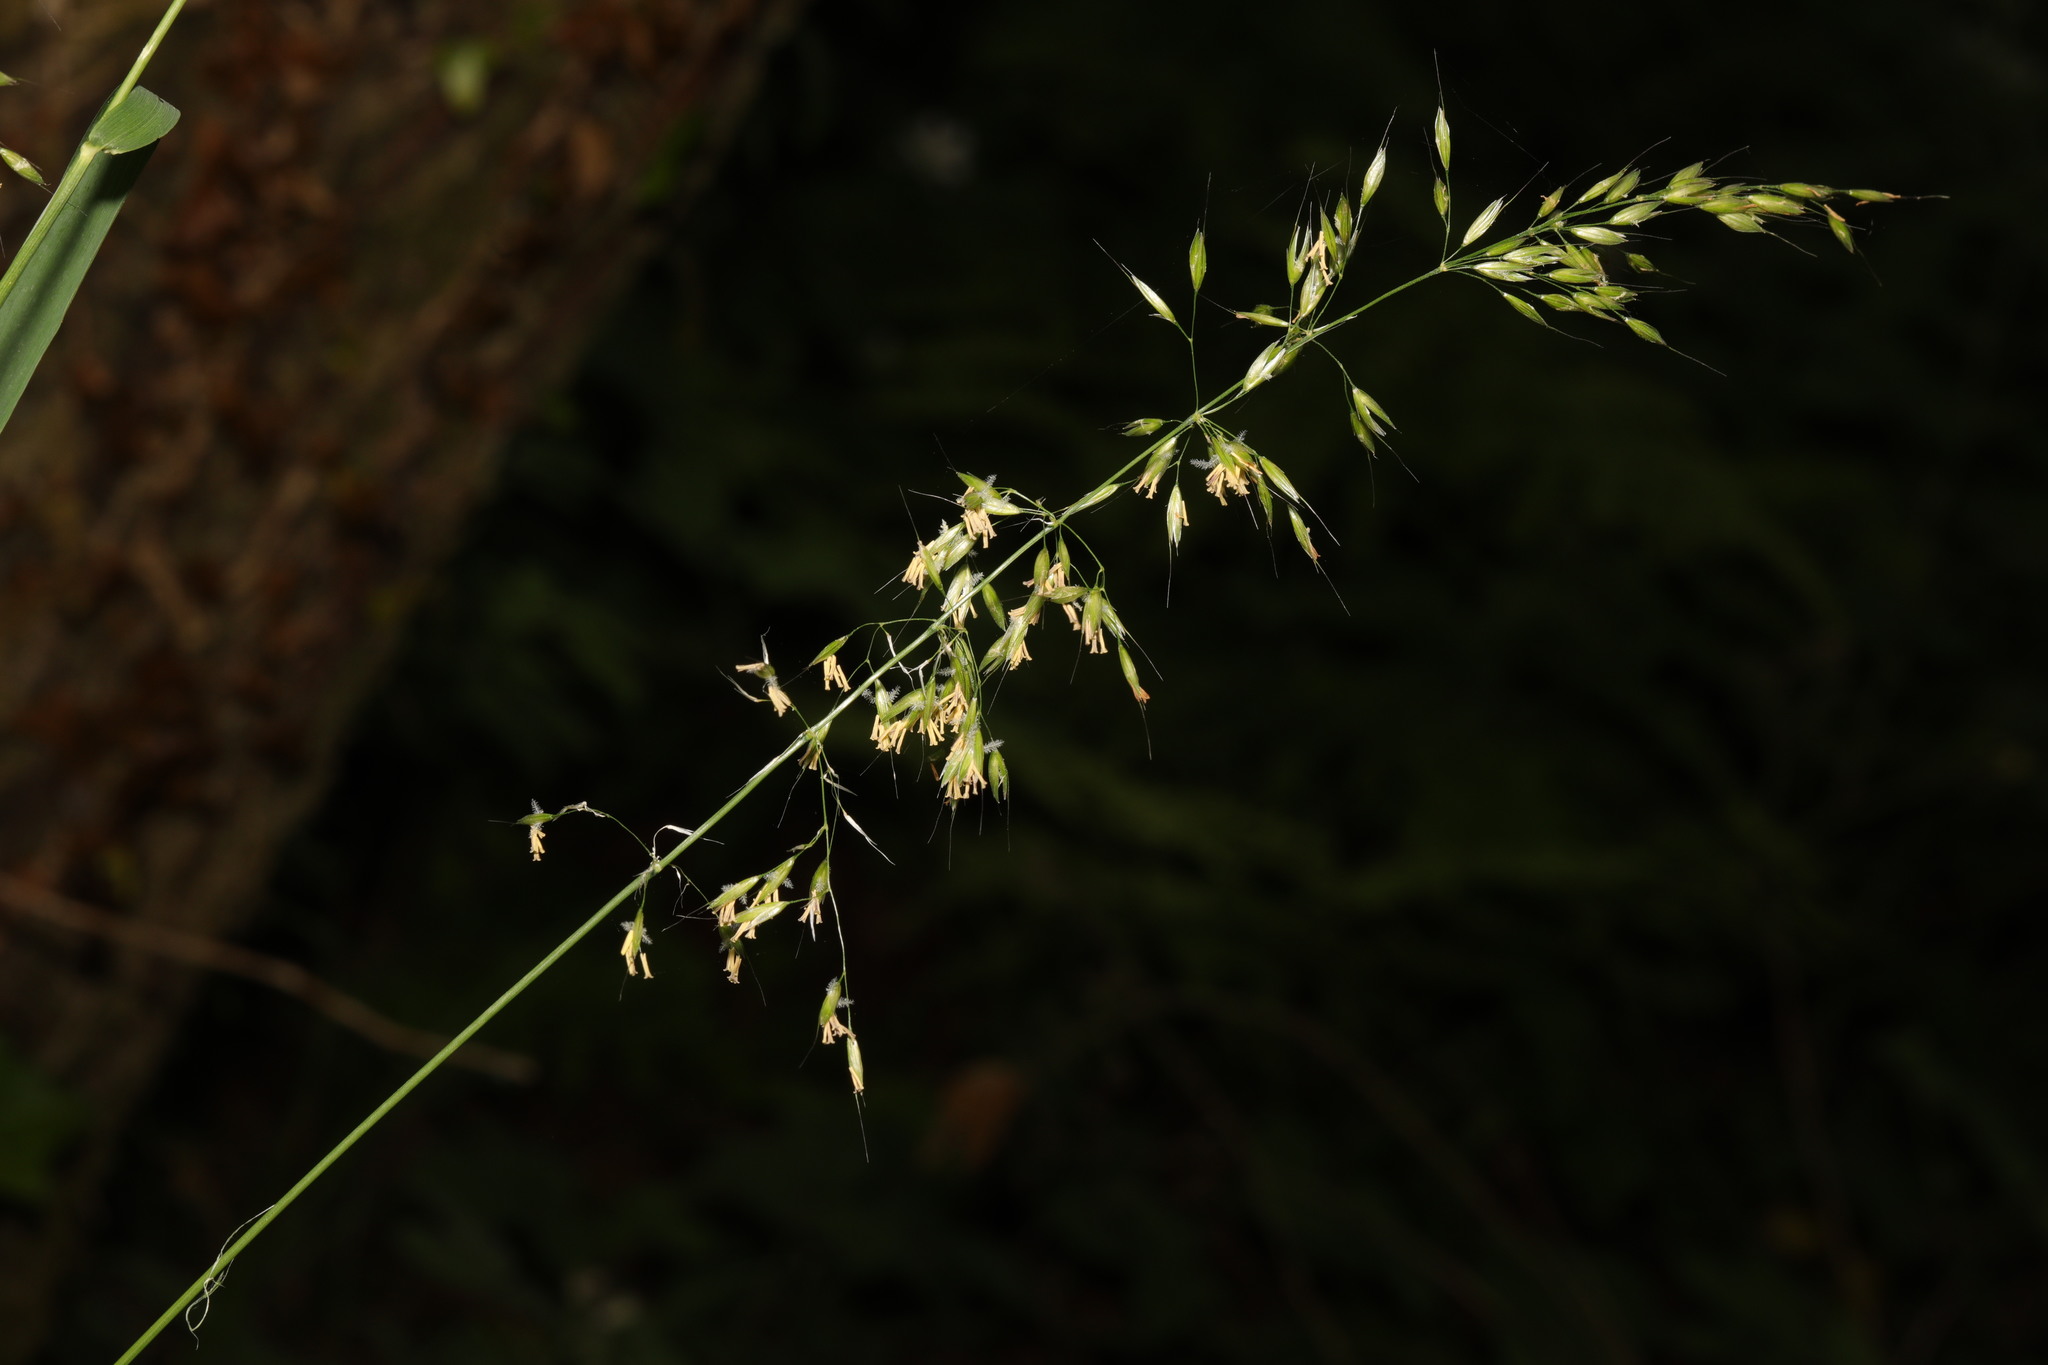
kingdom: Plantae
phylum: Tracheophyta
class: Liliopsida
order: Poales
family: Poaceae
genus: Milium
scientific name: Milium effusum
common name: Wood millet
